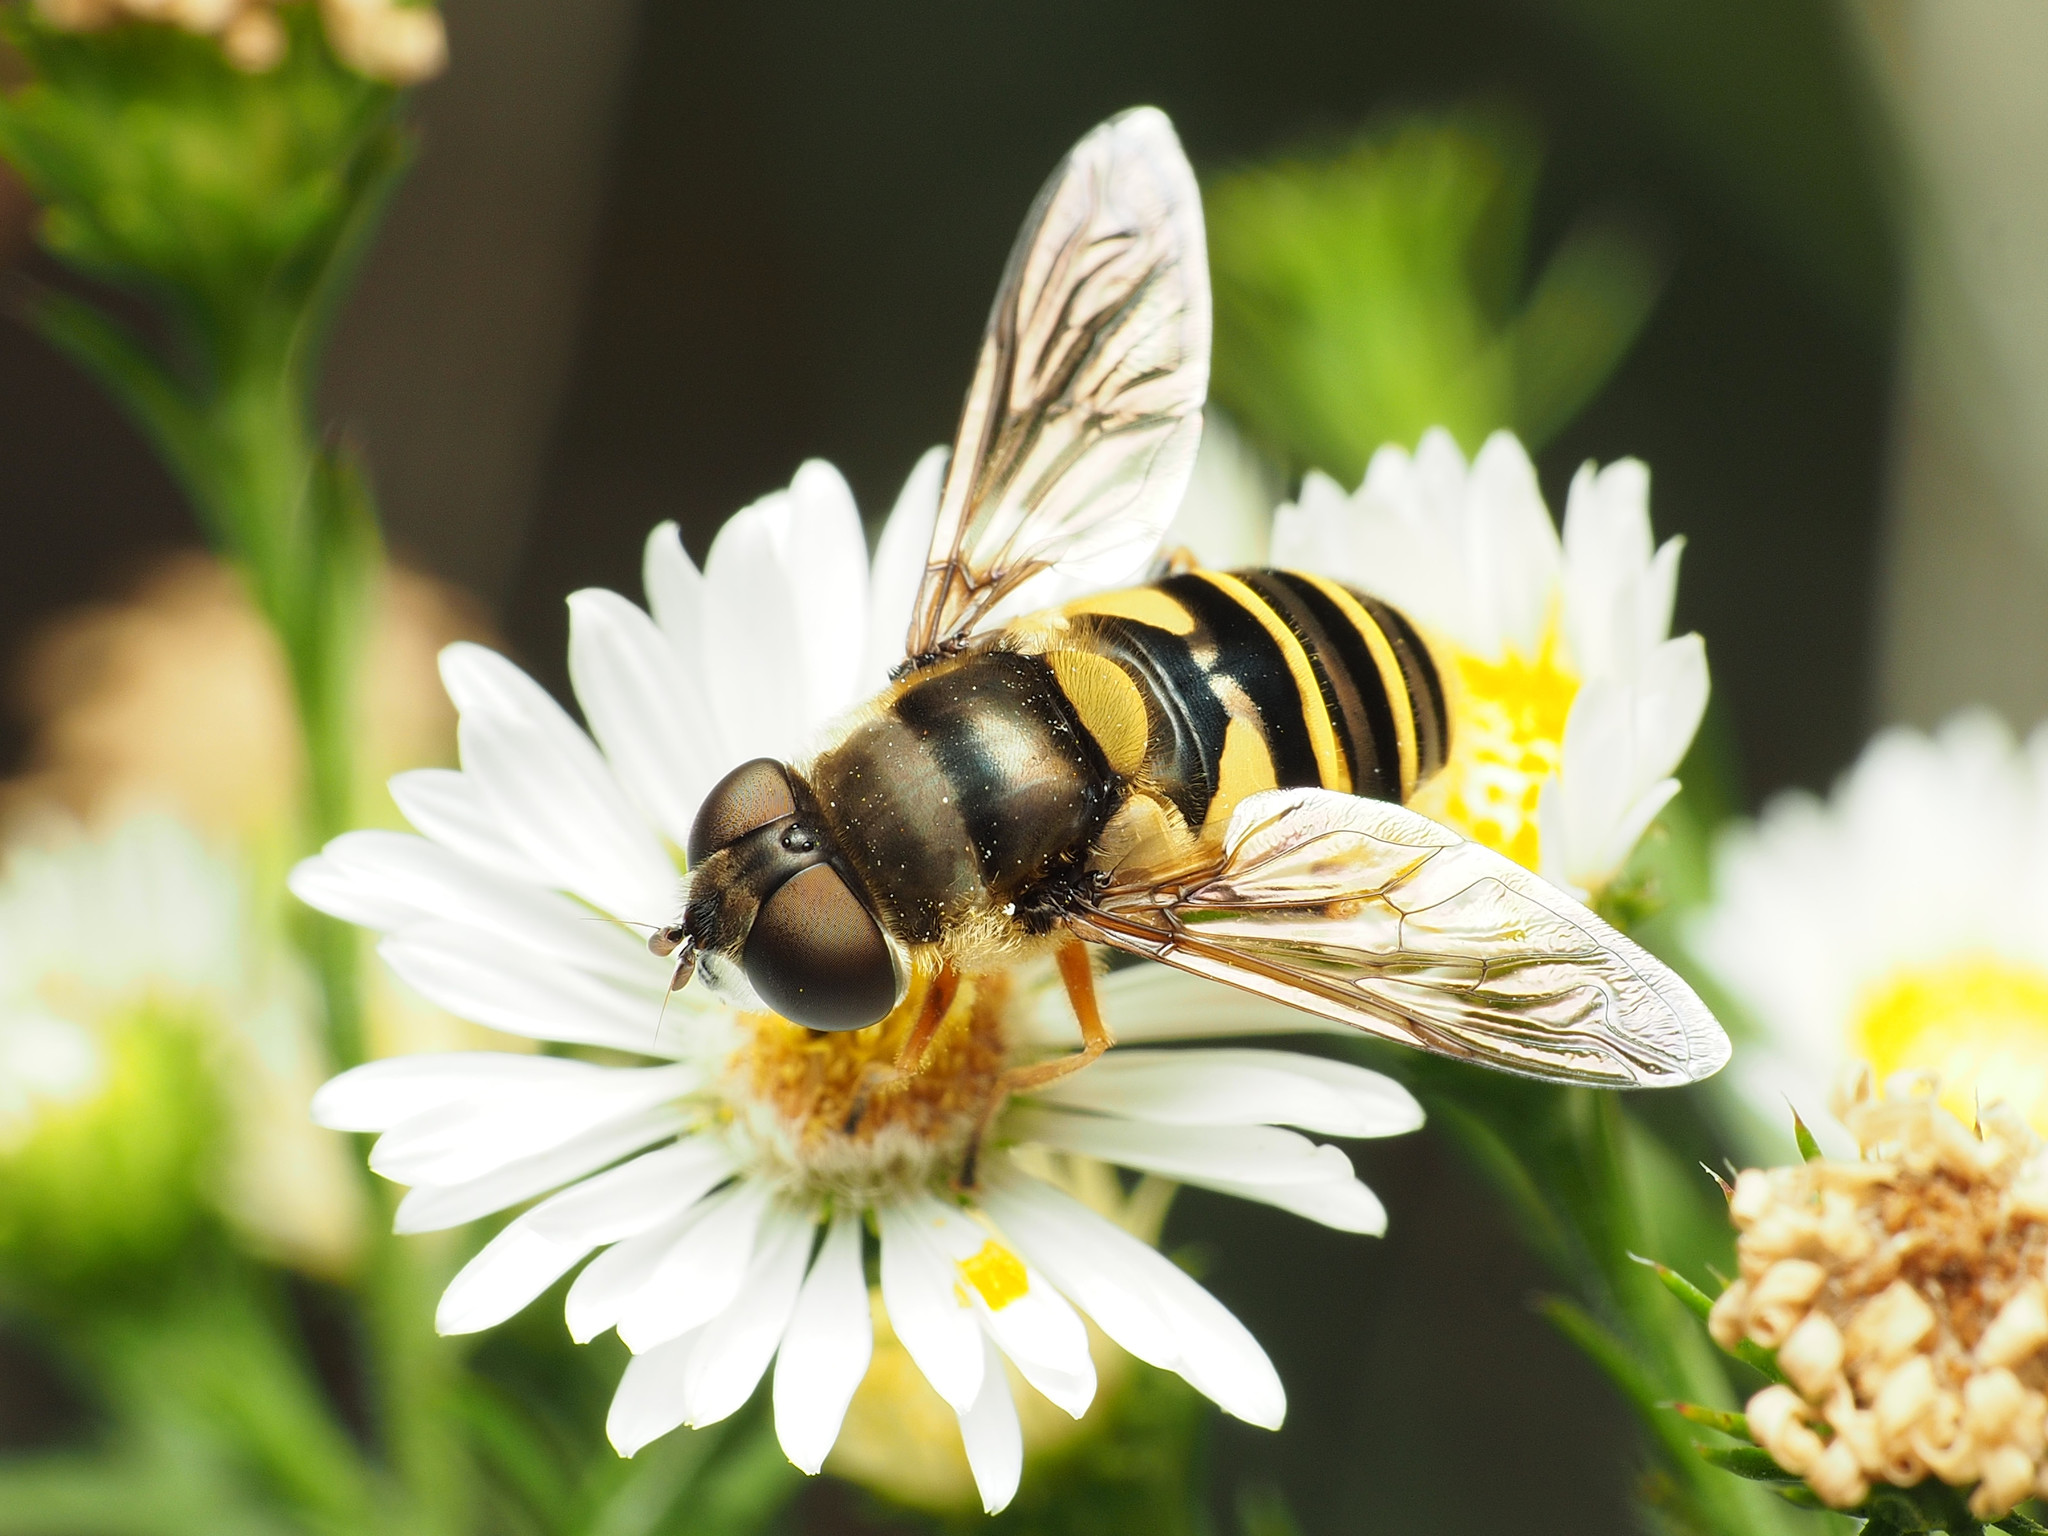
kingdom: Animalia
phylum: Arthropoda
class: Insecta
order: Diptera
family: Syrphidae
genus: Eristalis
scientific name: Eristalis transversa
